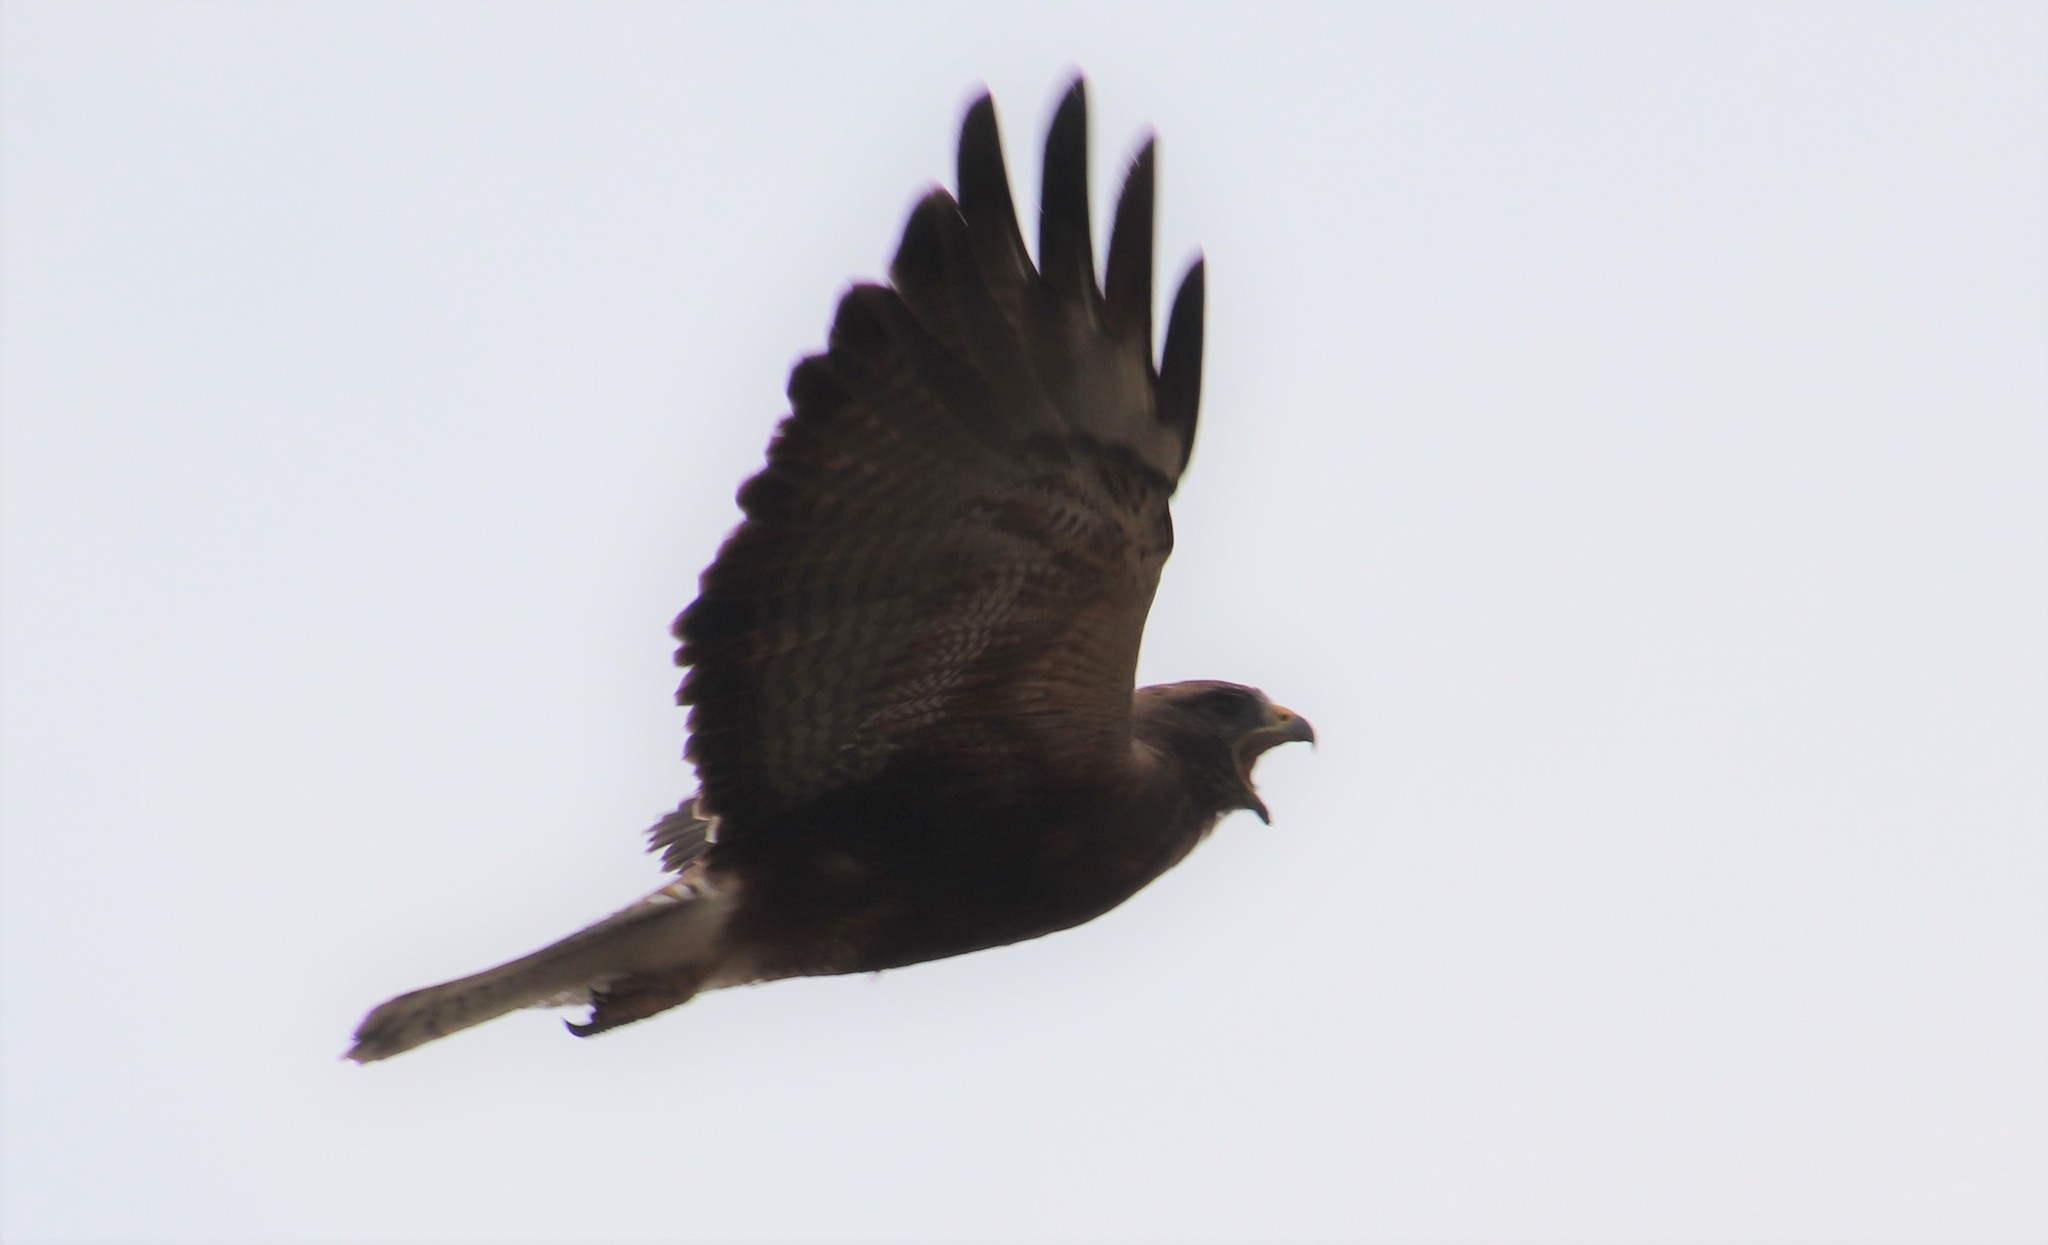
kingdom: Animalia
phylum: Chordata
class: Aves
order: Accipitriformes
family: Accipitridae
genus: Buteo
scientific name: Buteo swainsoni
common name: Swainson's hawk
